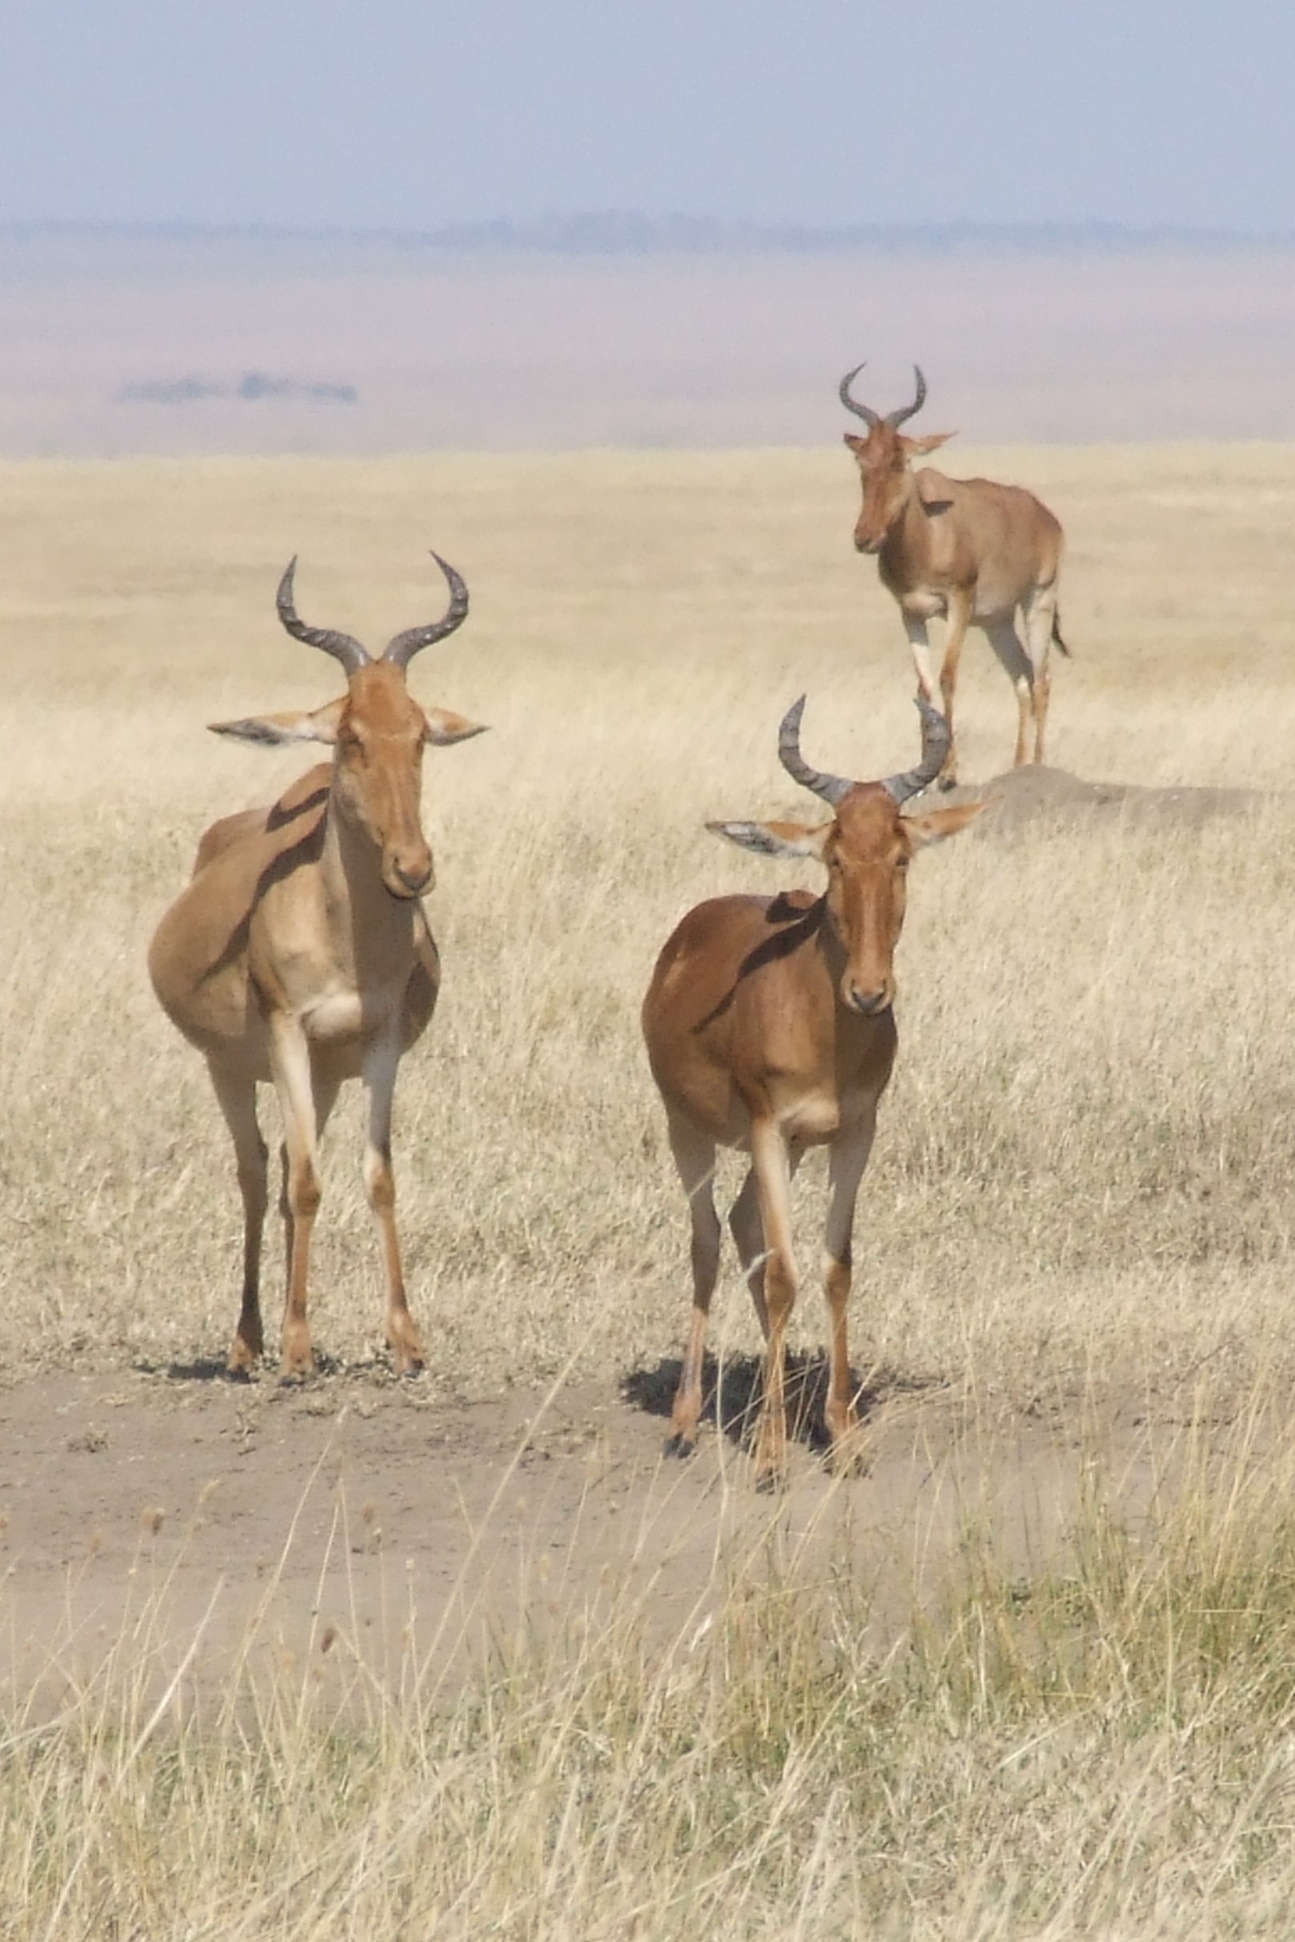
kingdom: Animalia
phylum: Chordata
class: Mammalia
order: Artiodactyla
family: Bovidae
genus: Alcelaphus
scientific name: Alcelaphus buselaphus
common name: Hartebeest
